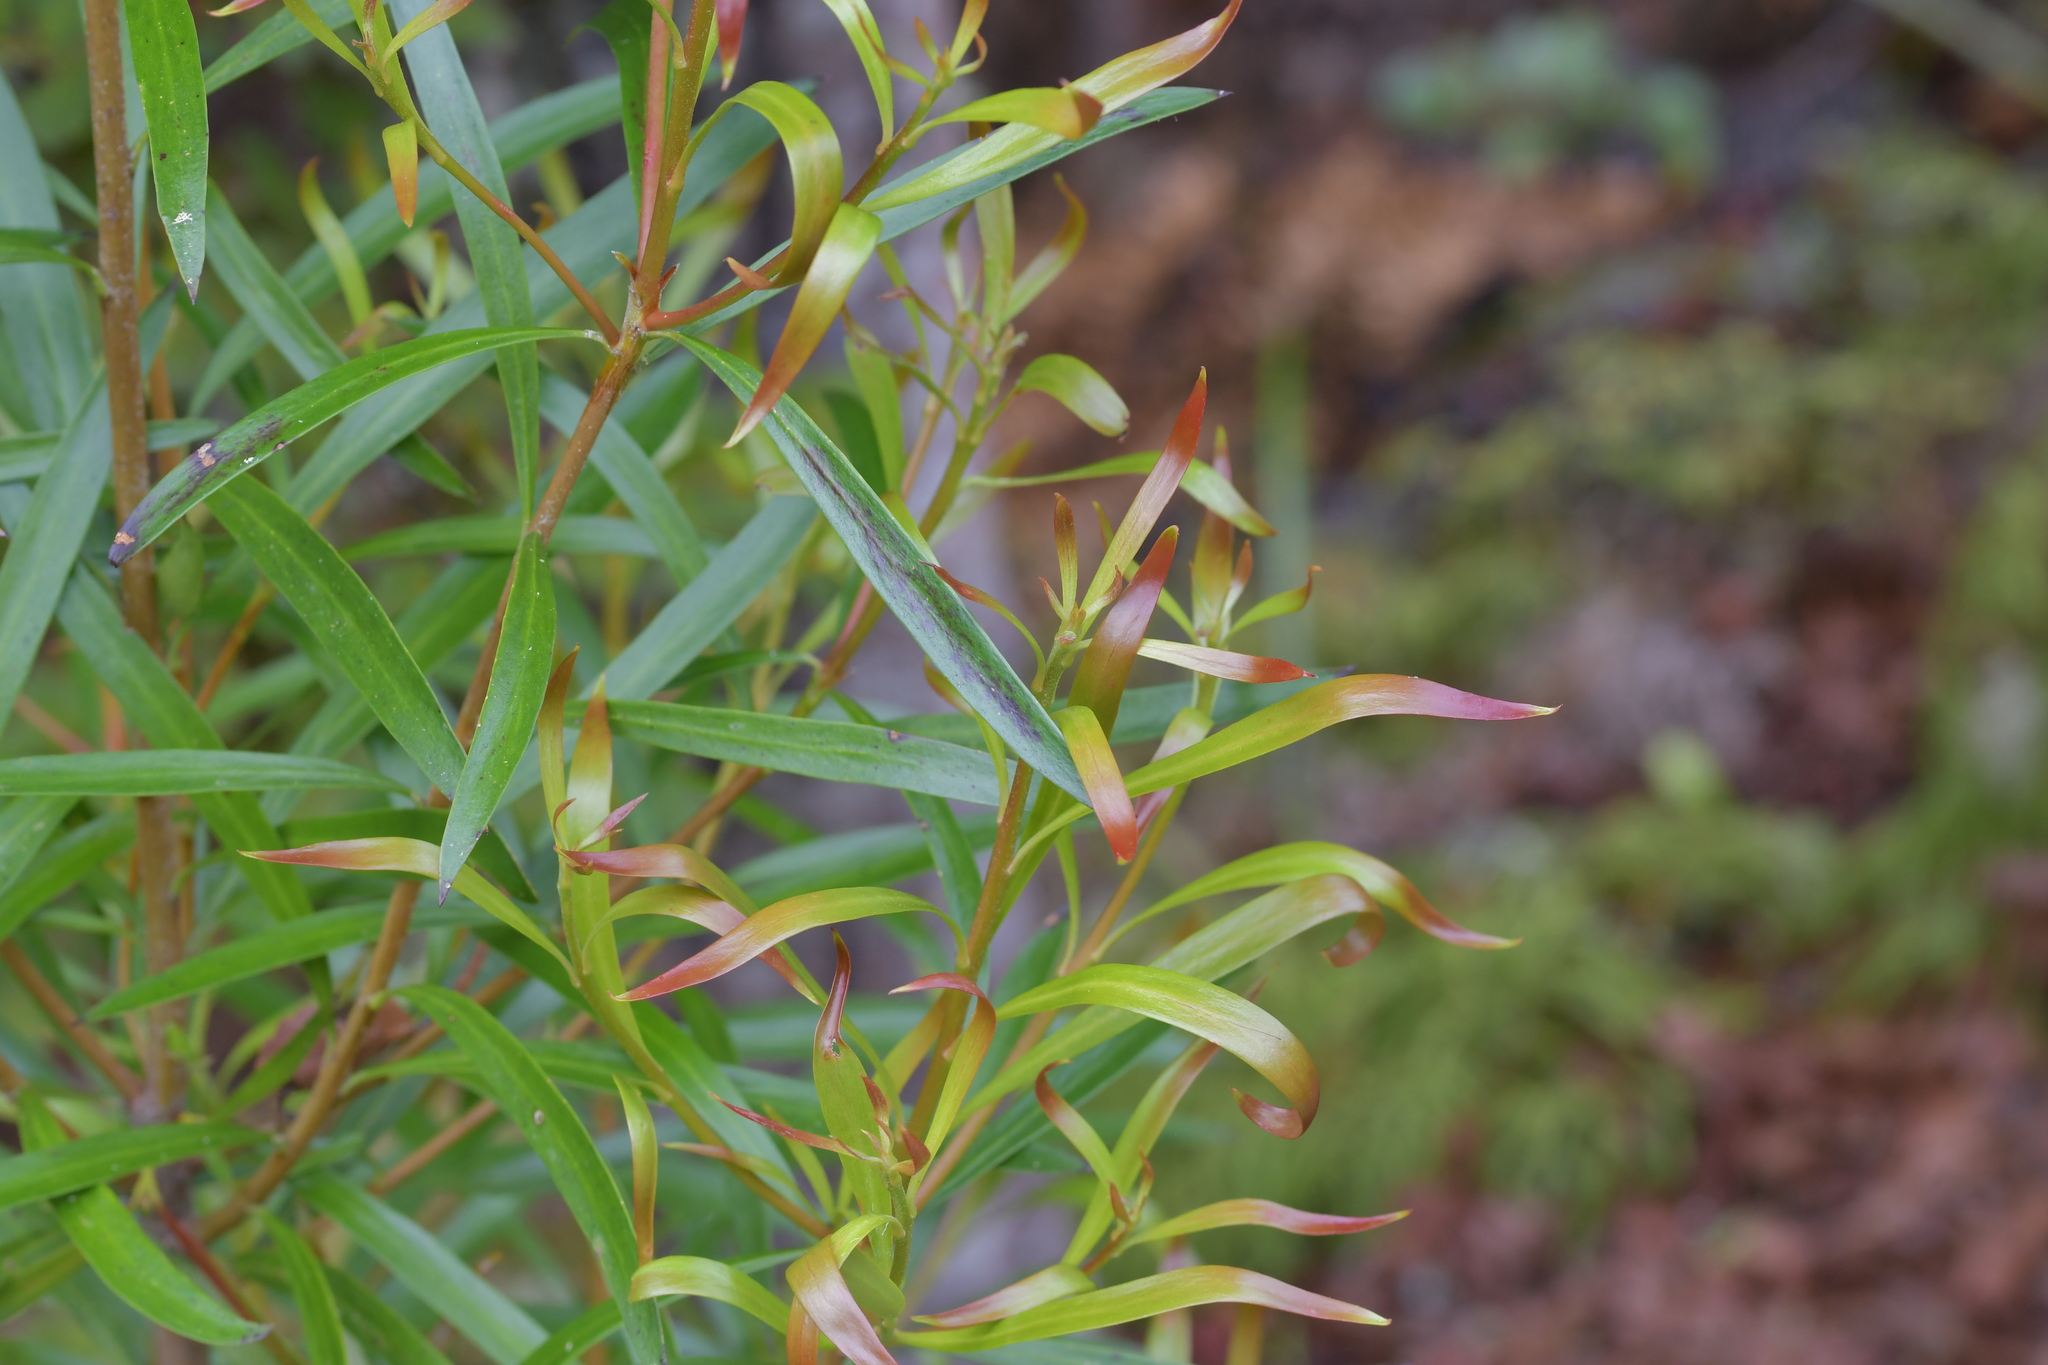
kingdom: Plantae
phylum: Tracheophyta
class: Magnoliopsida
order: Proteales
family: Proteaceae
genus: Toronia
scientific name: Toronia toru
